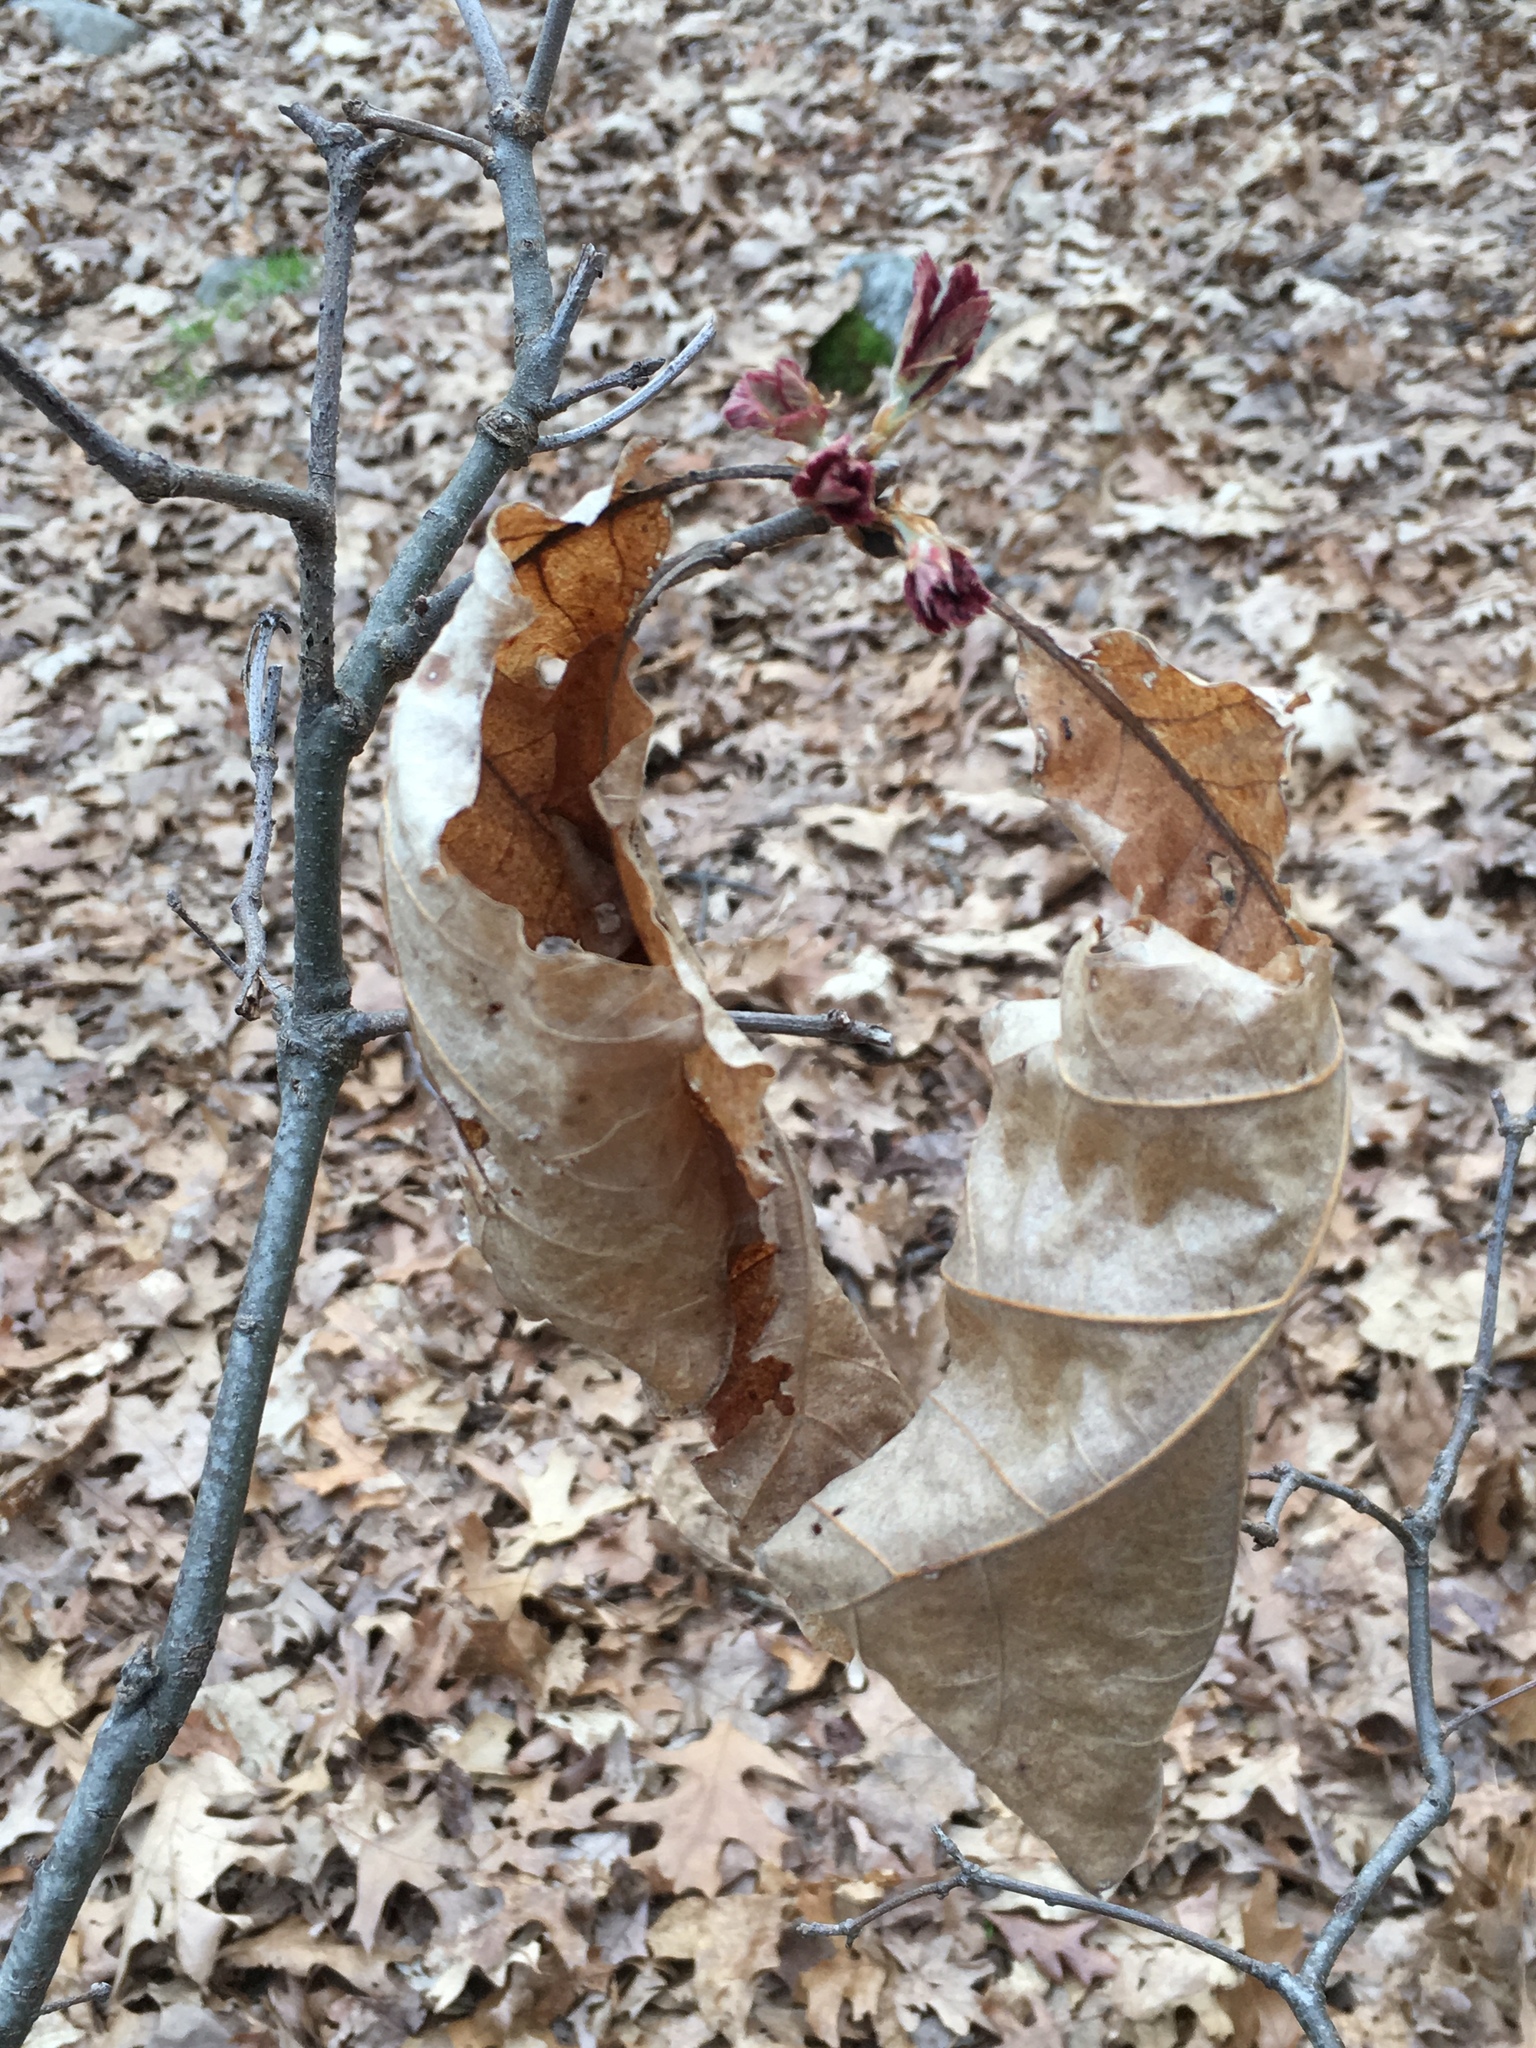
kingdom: Plantae
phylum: Tracheophyta
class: Magnoliopsida
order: Fagales
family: Fagaceae
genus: Quercus
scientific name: Quercus alba
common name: White oak
